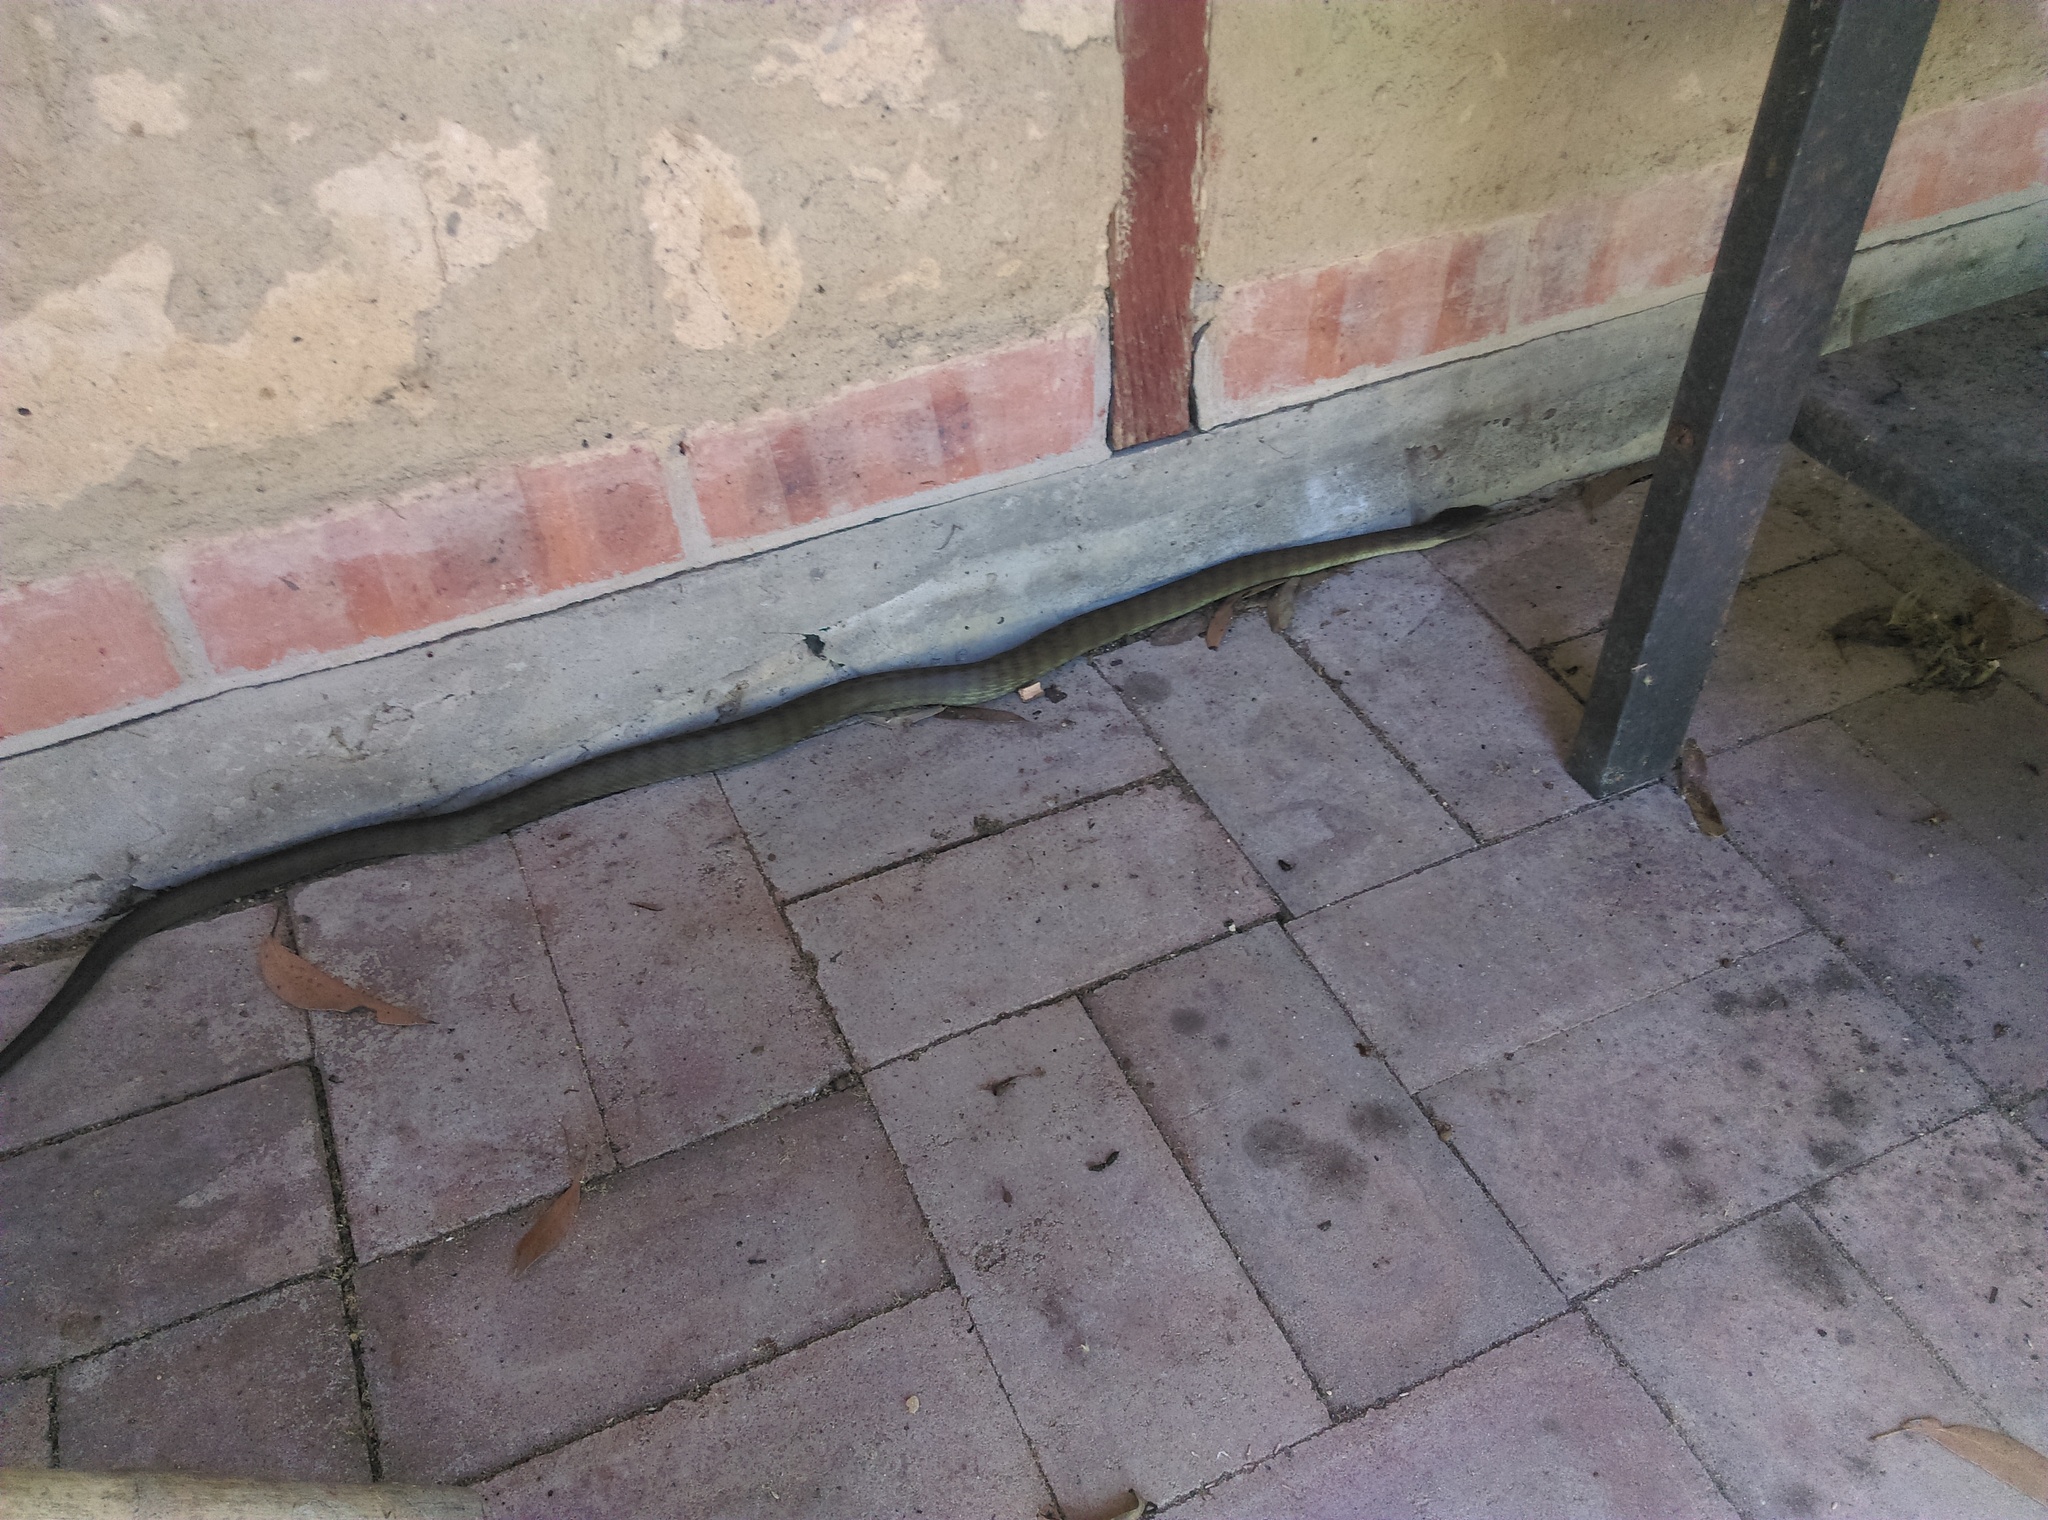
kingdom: Animalia
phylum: Chordata
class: Squamata
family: Elapidae
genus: Notechis
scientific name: Notechis scutatus
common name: Mainland tiger snake
